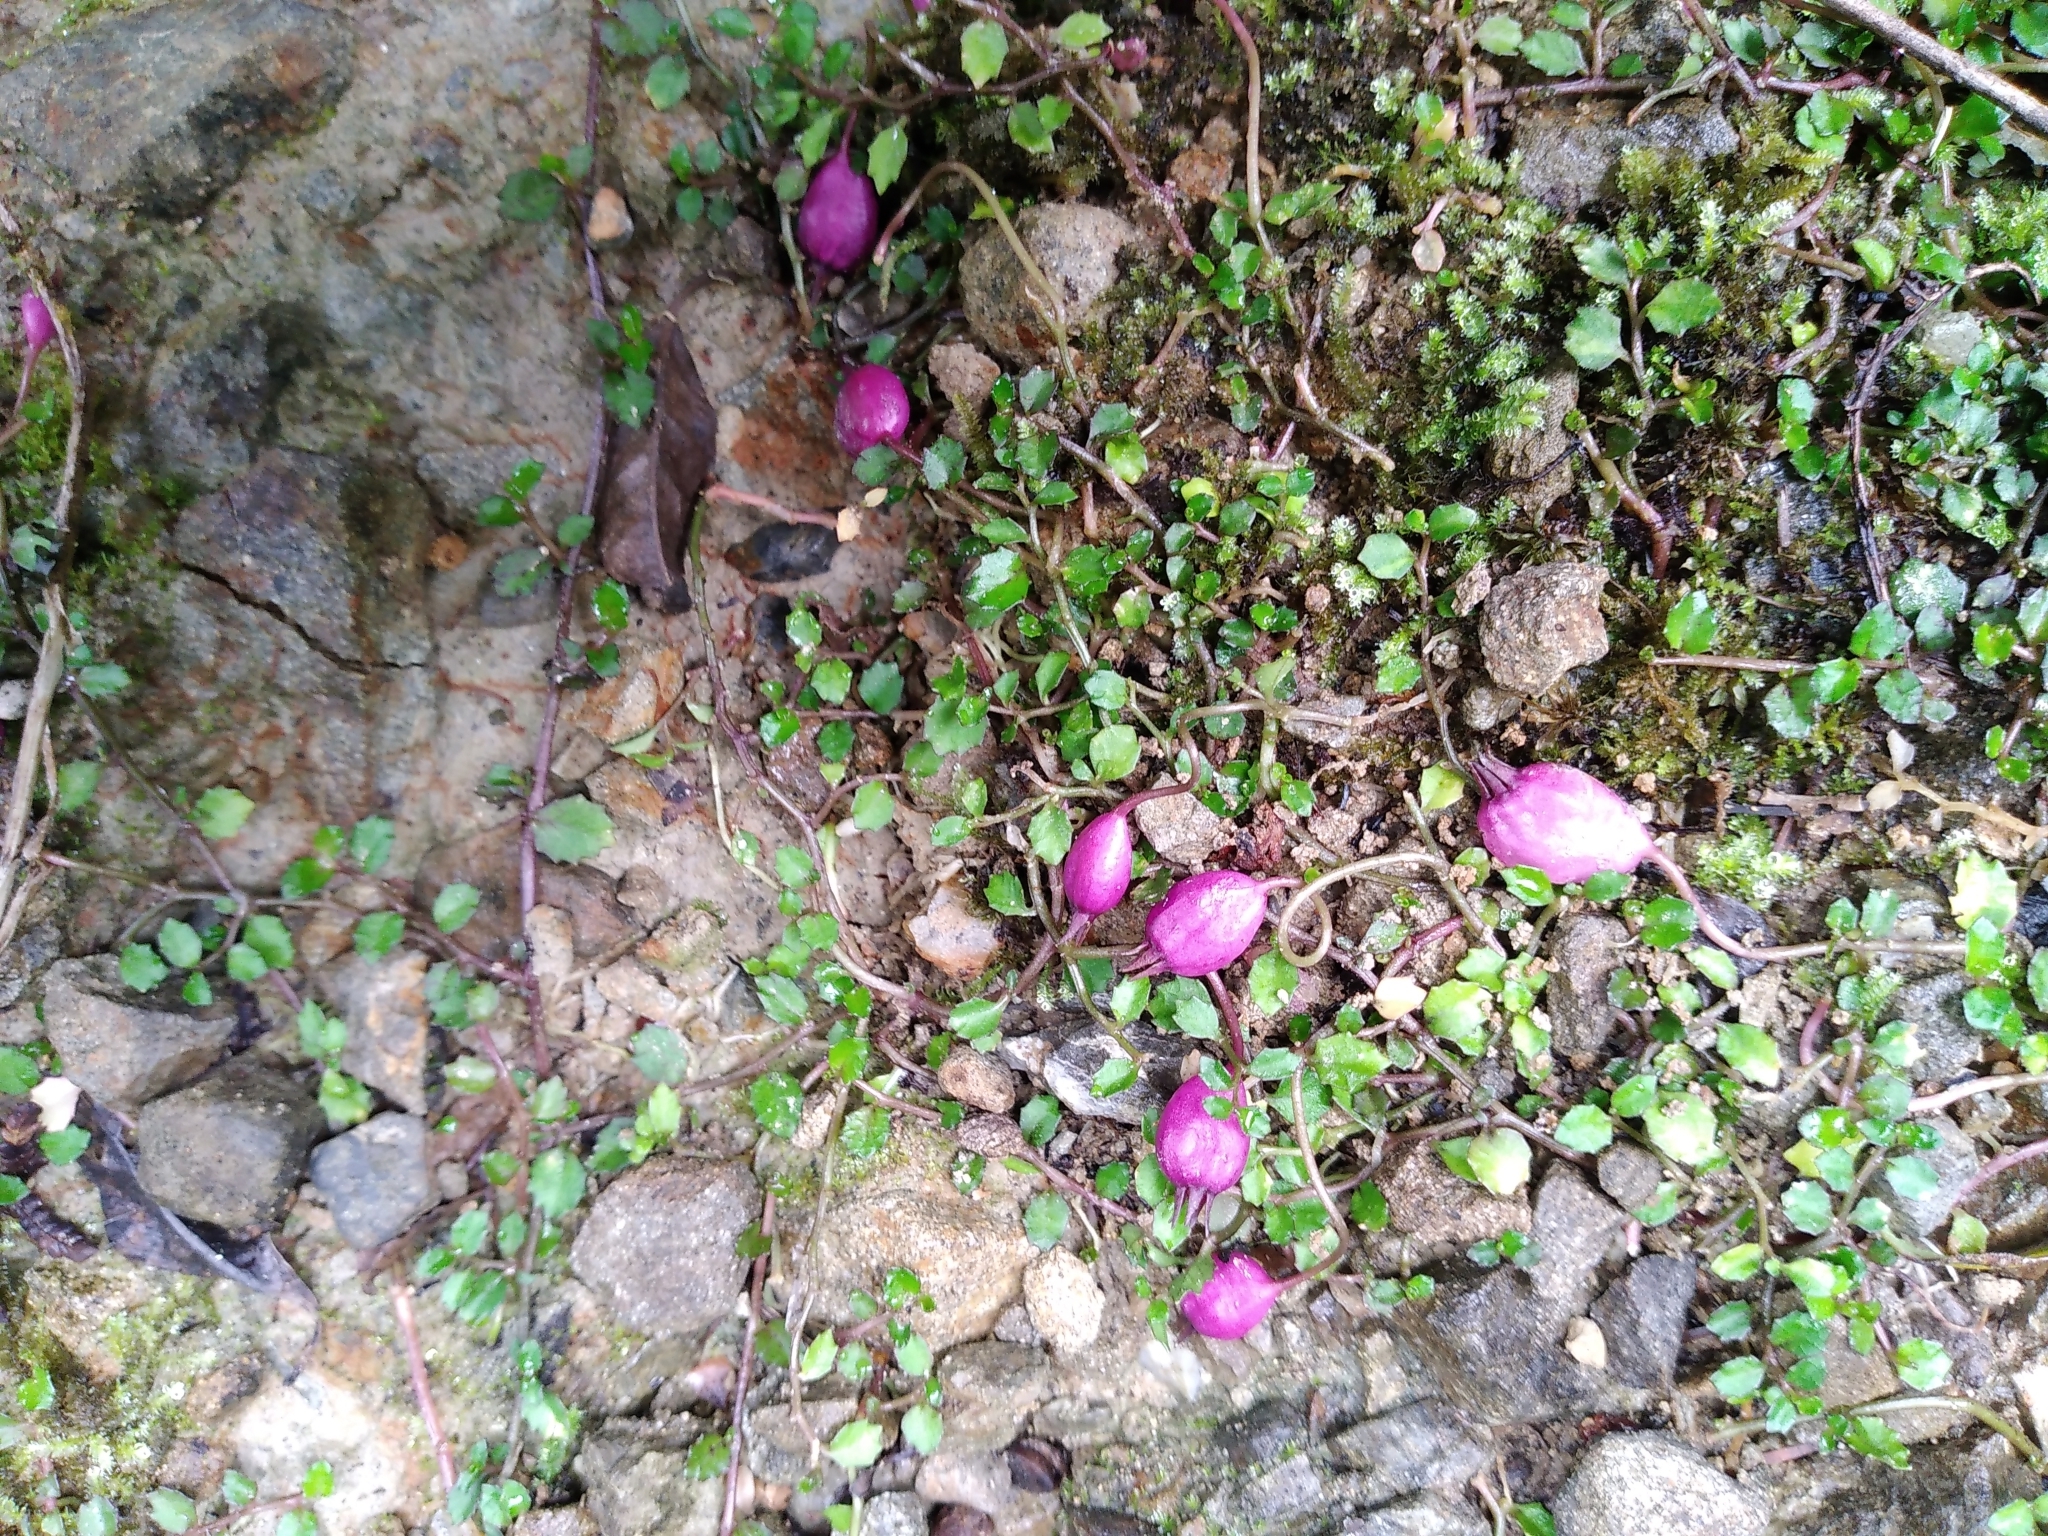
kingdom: Plantae
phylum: Tracheophyta
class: Magnoliopsida
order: Asterales
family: Campanulaceae
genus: Lobelia
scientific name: Lobelia angulata
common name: Lawn lobelia
